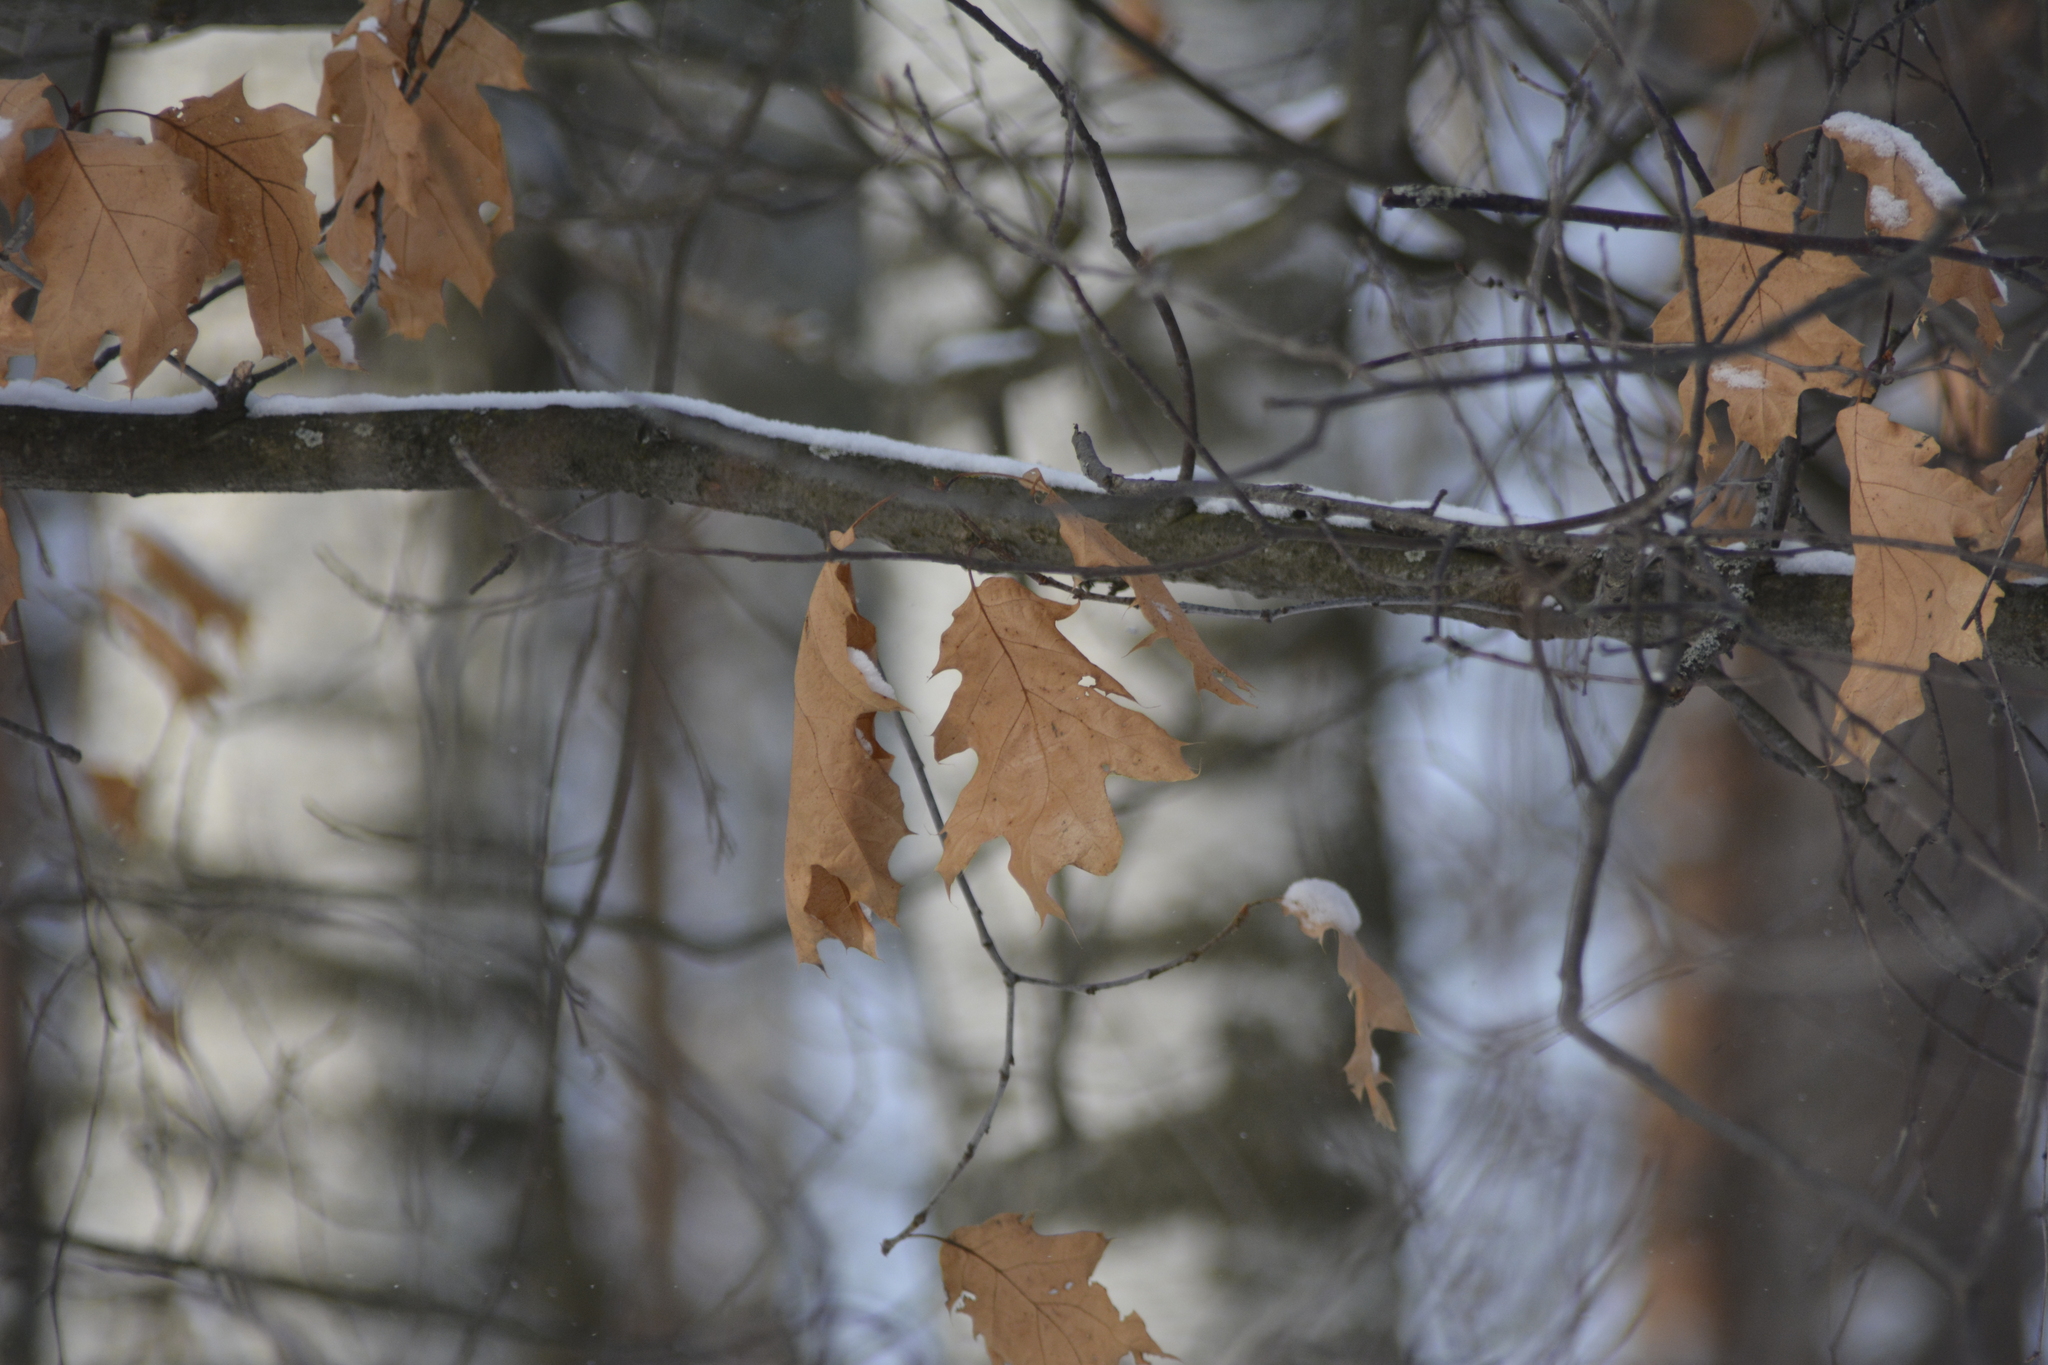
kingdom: Plantae
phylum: Tracheophyta
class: Magnoliopsida
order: Fagales
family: Fagaceae
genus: Quercus
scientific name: Quercus rubra
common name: Red oak
